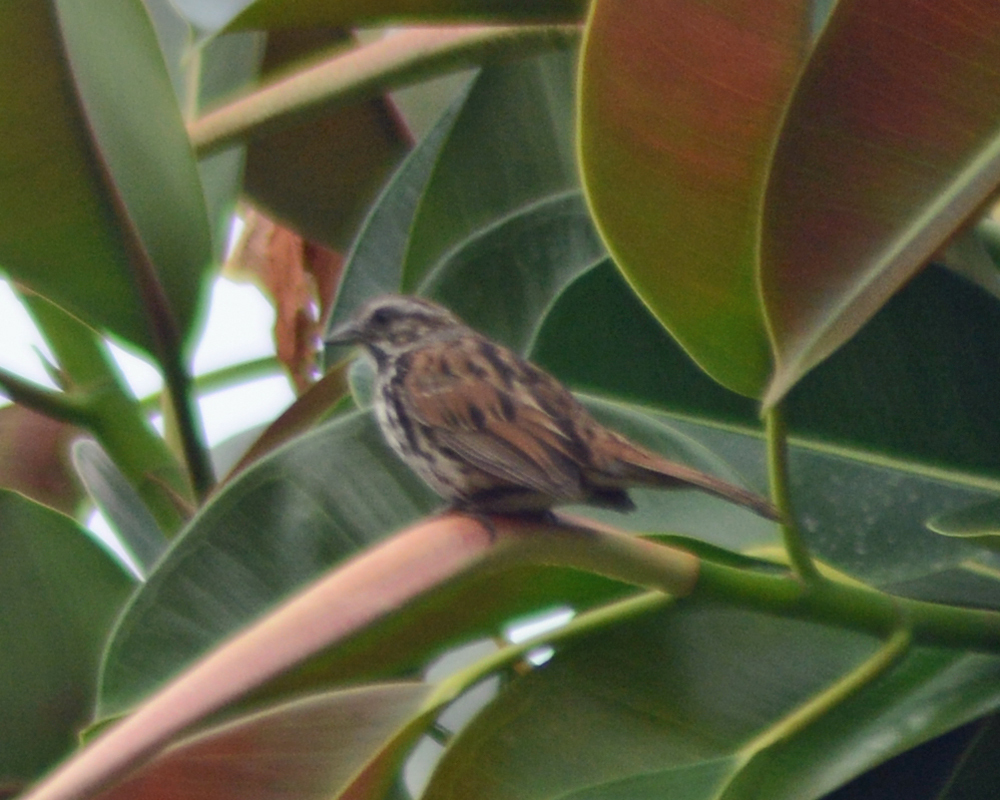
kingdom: Animalia
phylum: Chordata
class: Aves
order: Passeriformes
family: Passerellidae
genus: Melospiza
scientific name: Melospiza melodia
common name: Song sparrow
